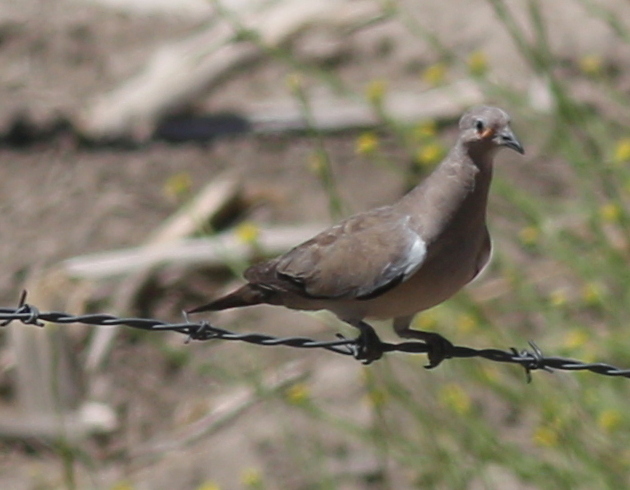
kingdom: Animalia
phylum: Chordata
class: Aves
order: Columbiformes
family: Columbidae
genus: Metriopelia
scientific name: Metriopelia melanoptera
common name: Black-winged ground dove
